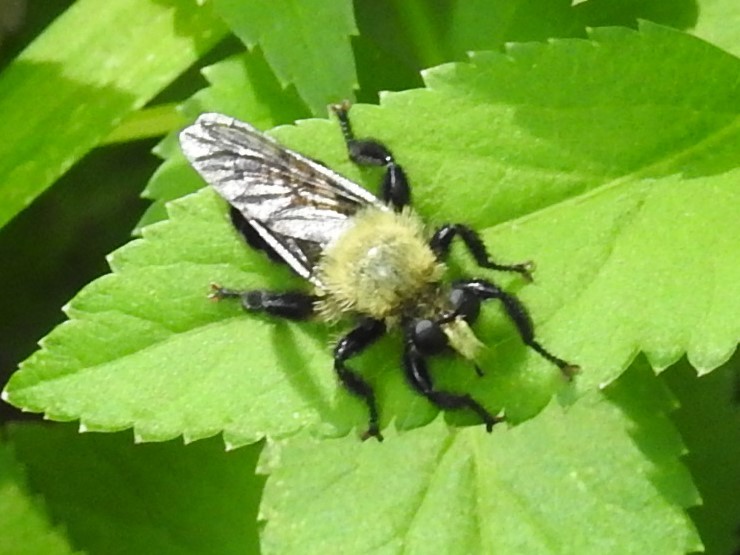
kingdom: Animalia
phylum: Arthropoda
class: Insecta
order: Diptera
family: Asilidae
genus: Laphria
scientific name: Laphria flavicollis
